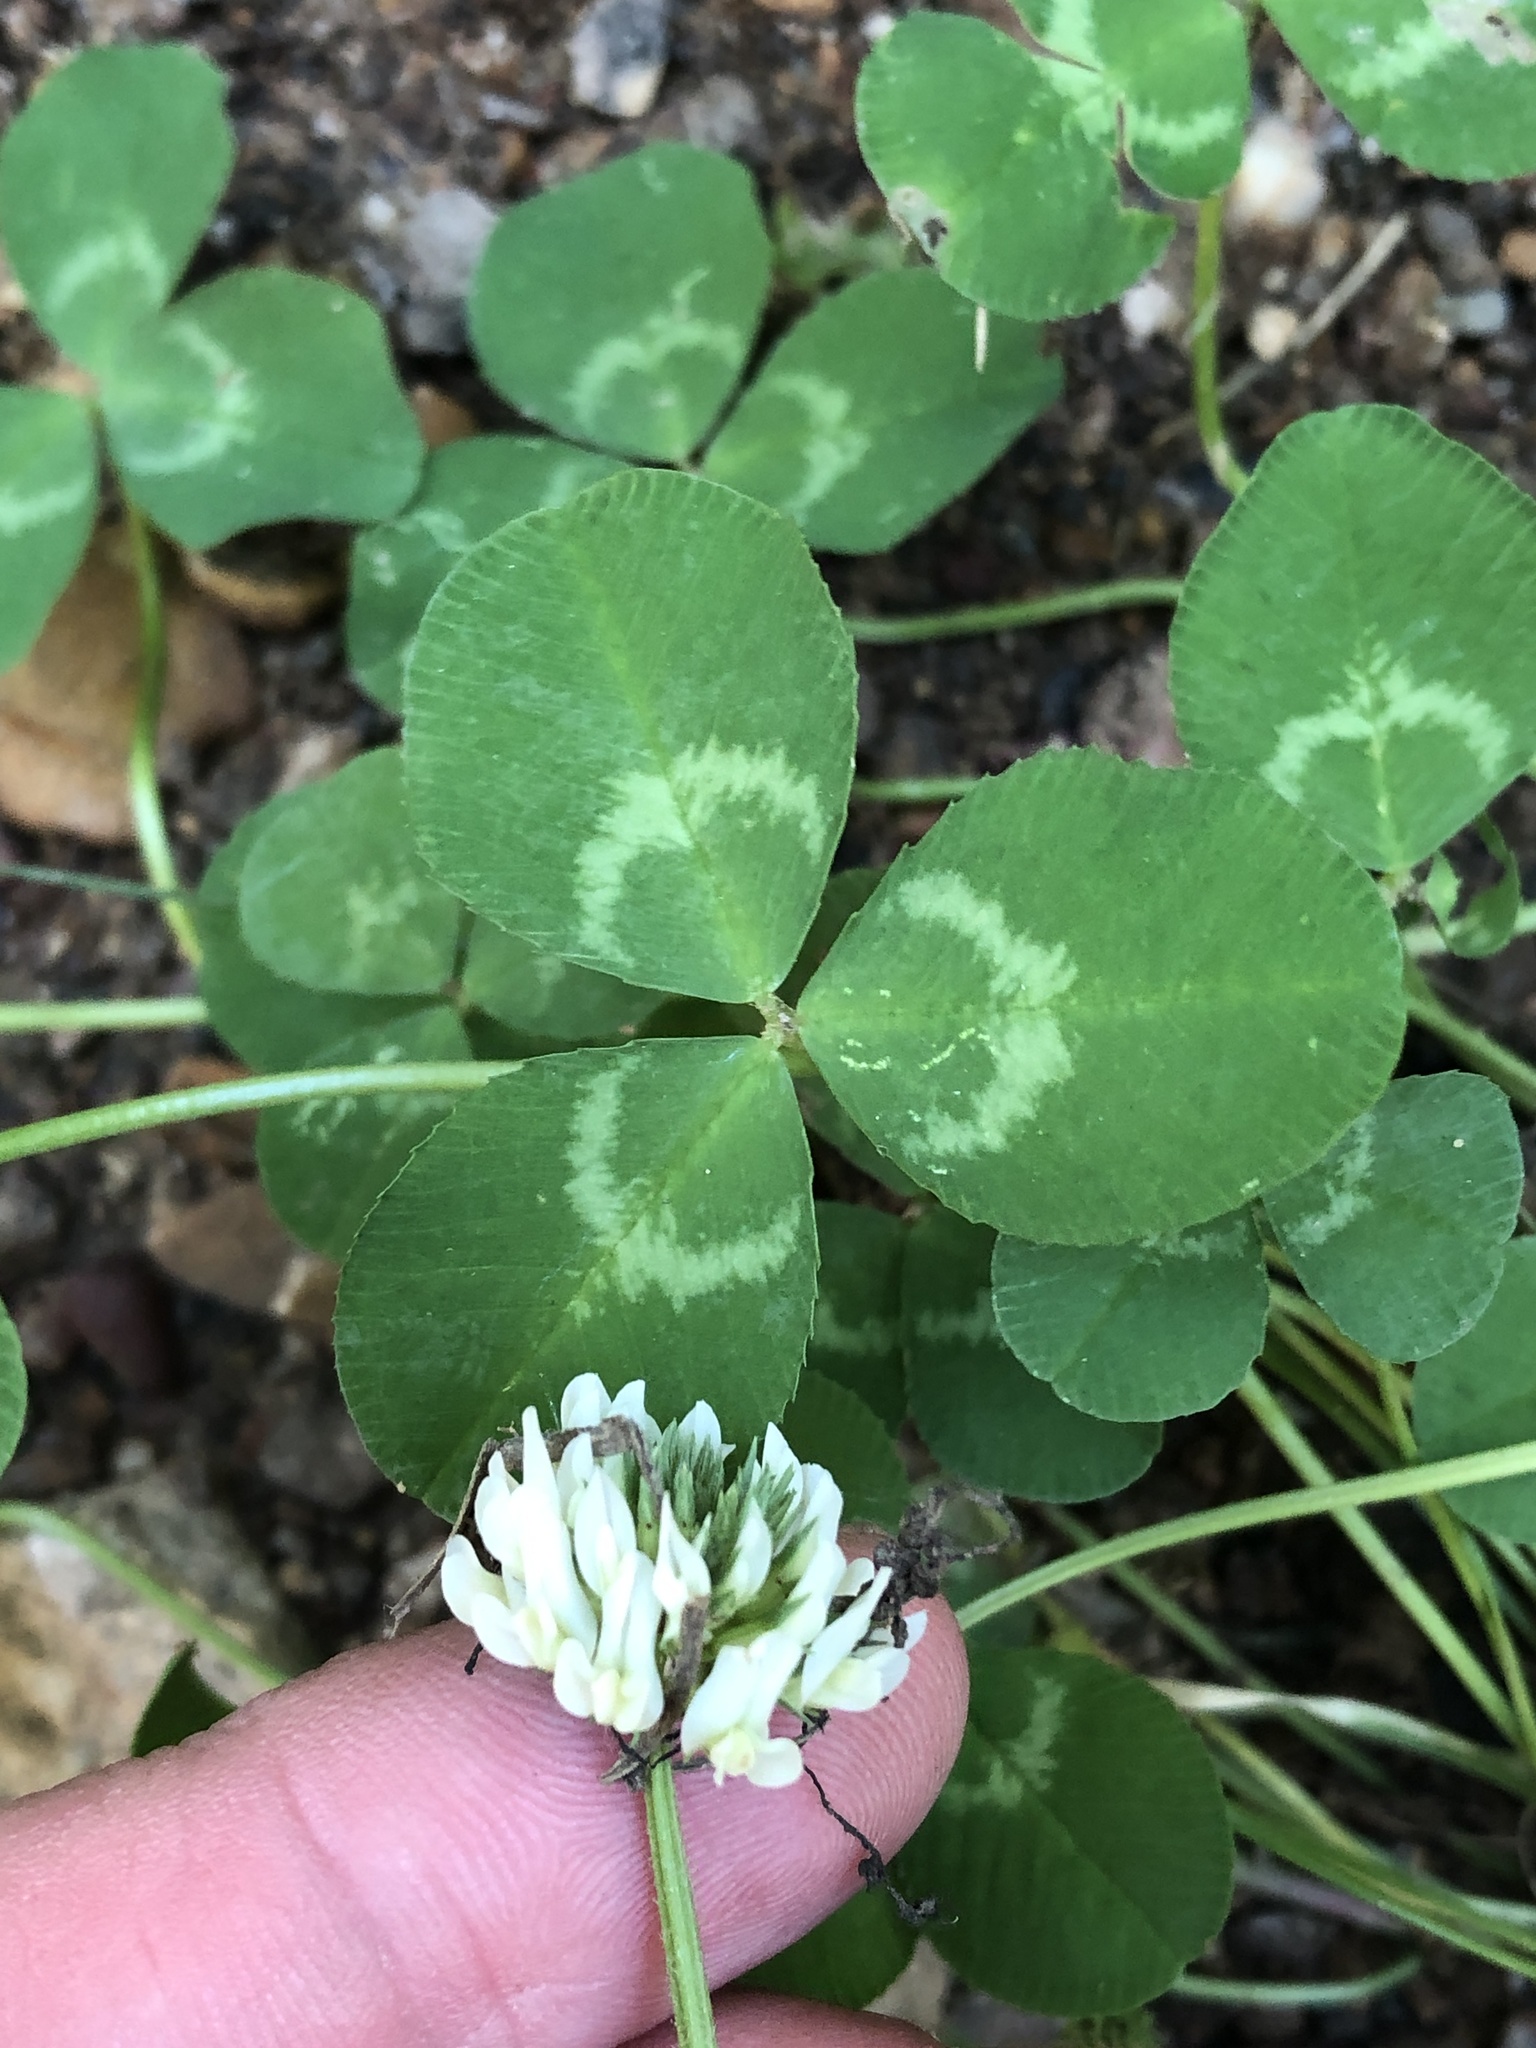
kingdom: Plantae
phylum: Tracheophyta
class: Magnoliopsida
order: Fabales
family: Fabaceae
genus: Trifolium
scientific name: Trifolium repens
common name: White clover
